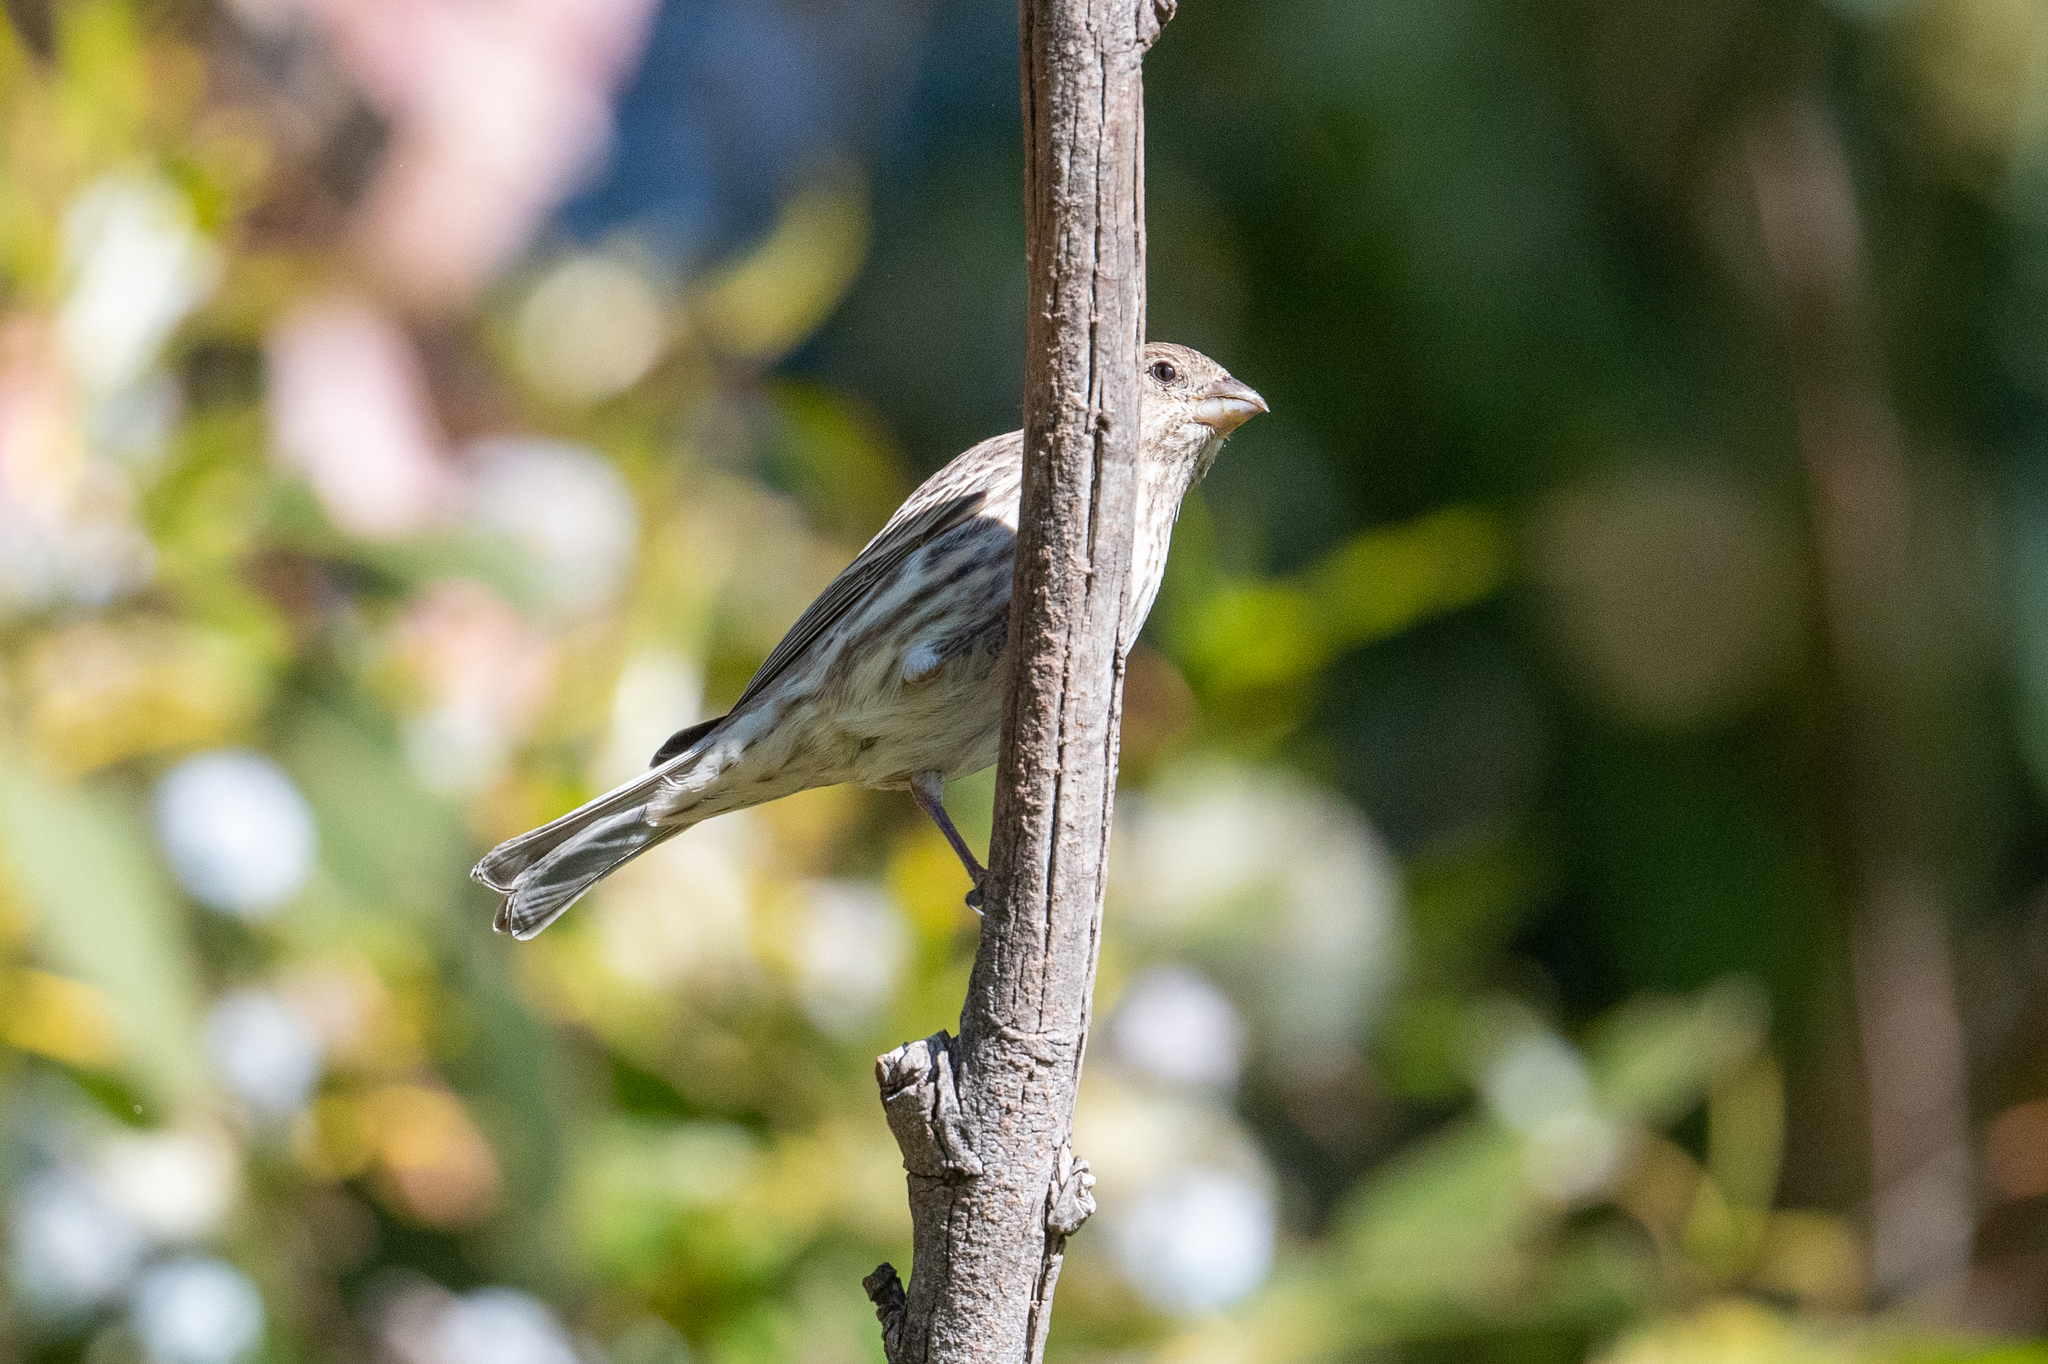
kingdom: Animalia
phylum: Chordata
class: Aves
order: Passeriformes
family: Fringillidae
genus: Haemorhous
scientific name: Haemorhous mexicanus
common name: House finch
